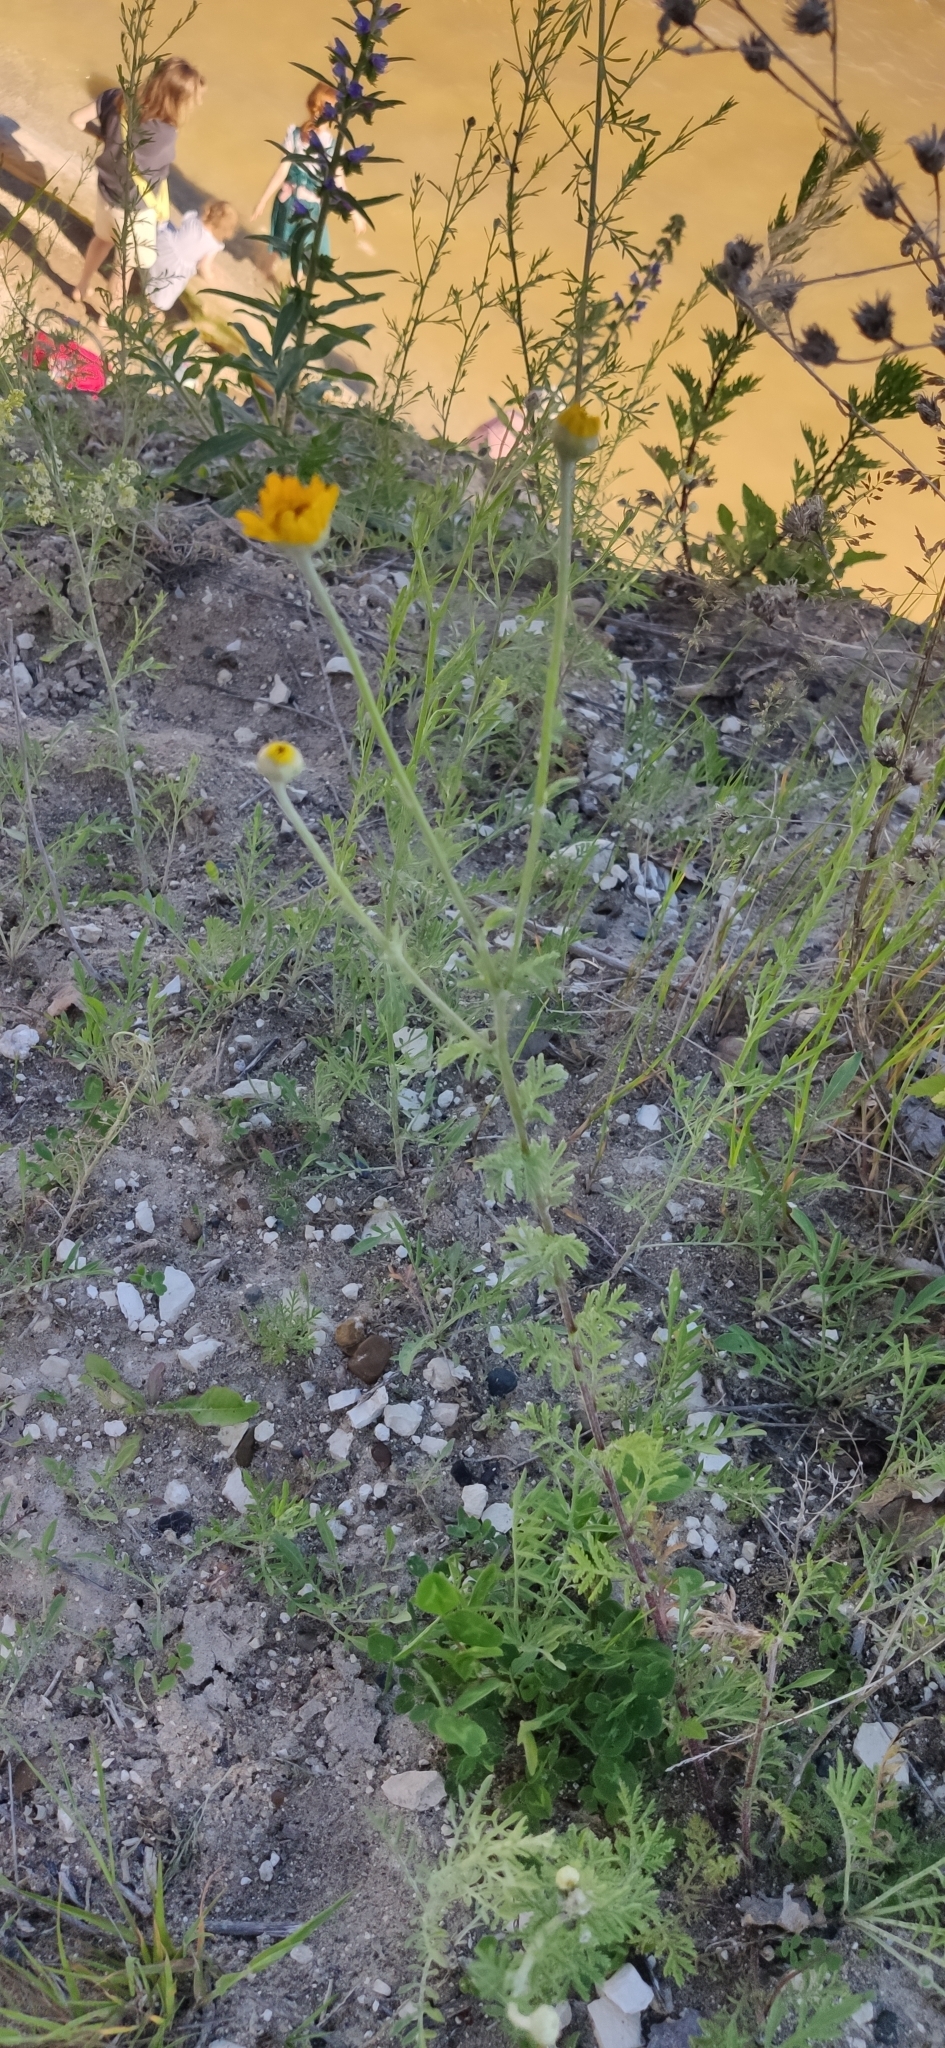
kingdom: Plantae
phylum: Tracheophyta
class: Magnoliopsida
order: Asterales
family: Asteraceae
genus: Cota
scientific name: Cota tinctoria
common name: Golden chamomile
